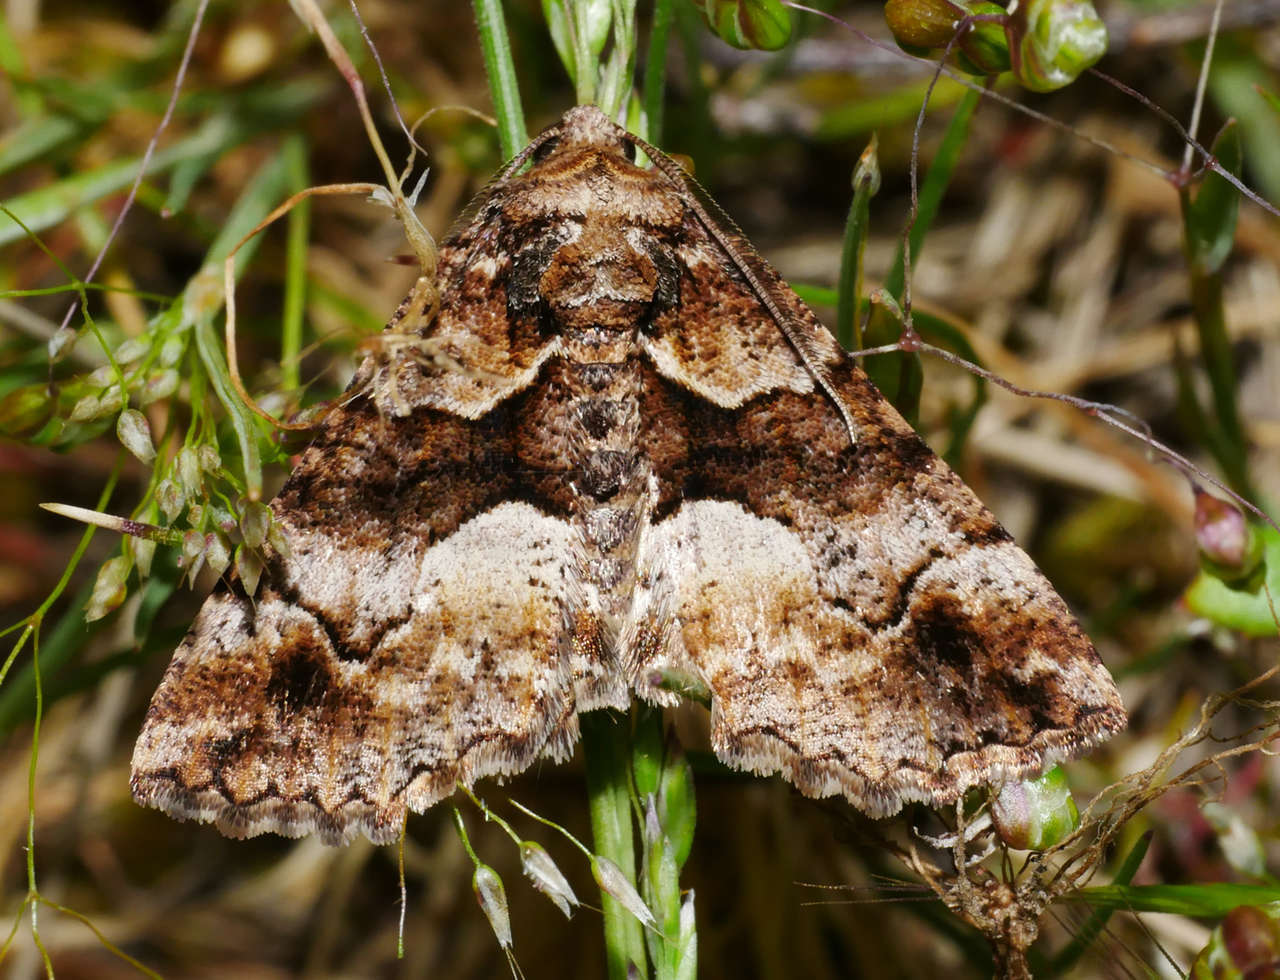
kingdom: Animalia
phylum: Arthropoda
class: Insecta
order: Lepidoptera
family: Geometridae
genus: Gastrina
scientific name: Gastrina cristaria
